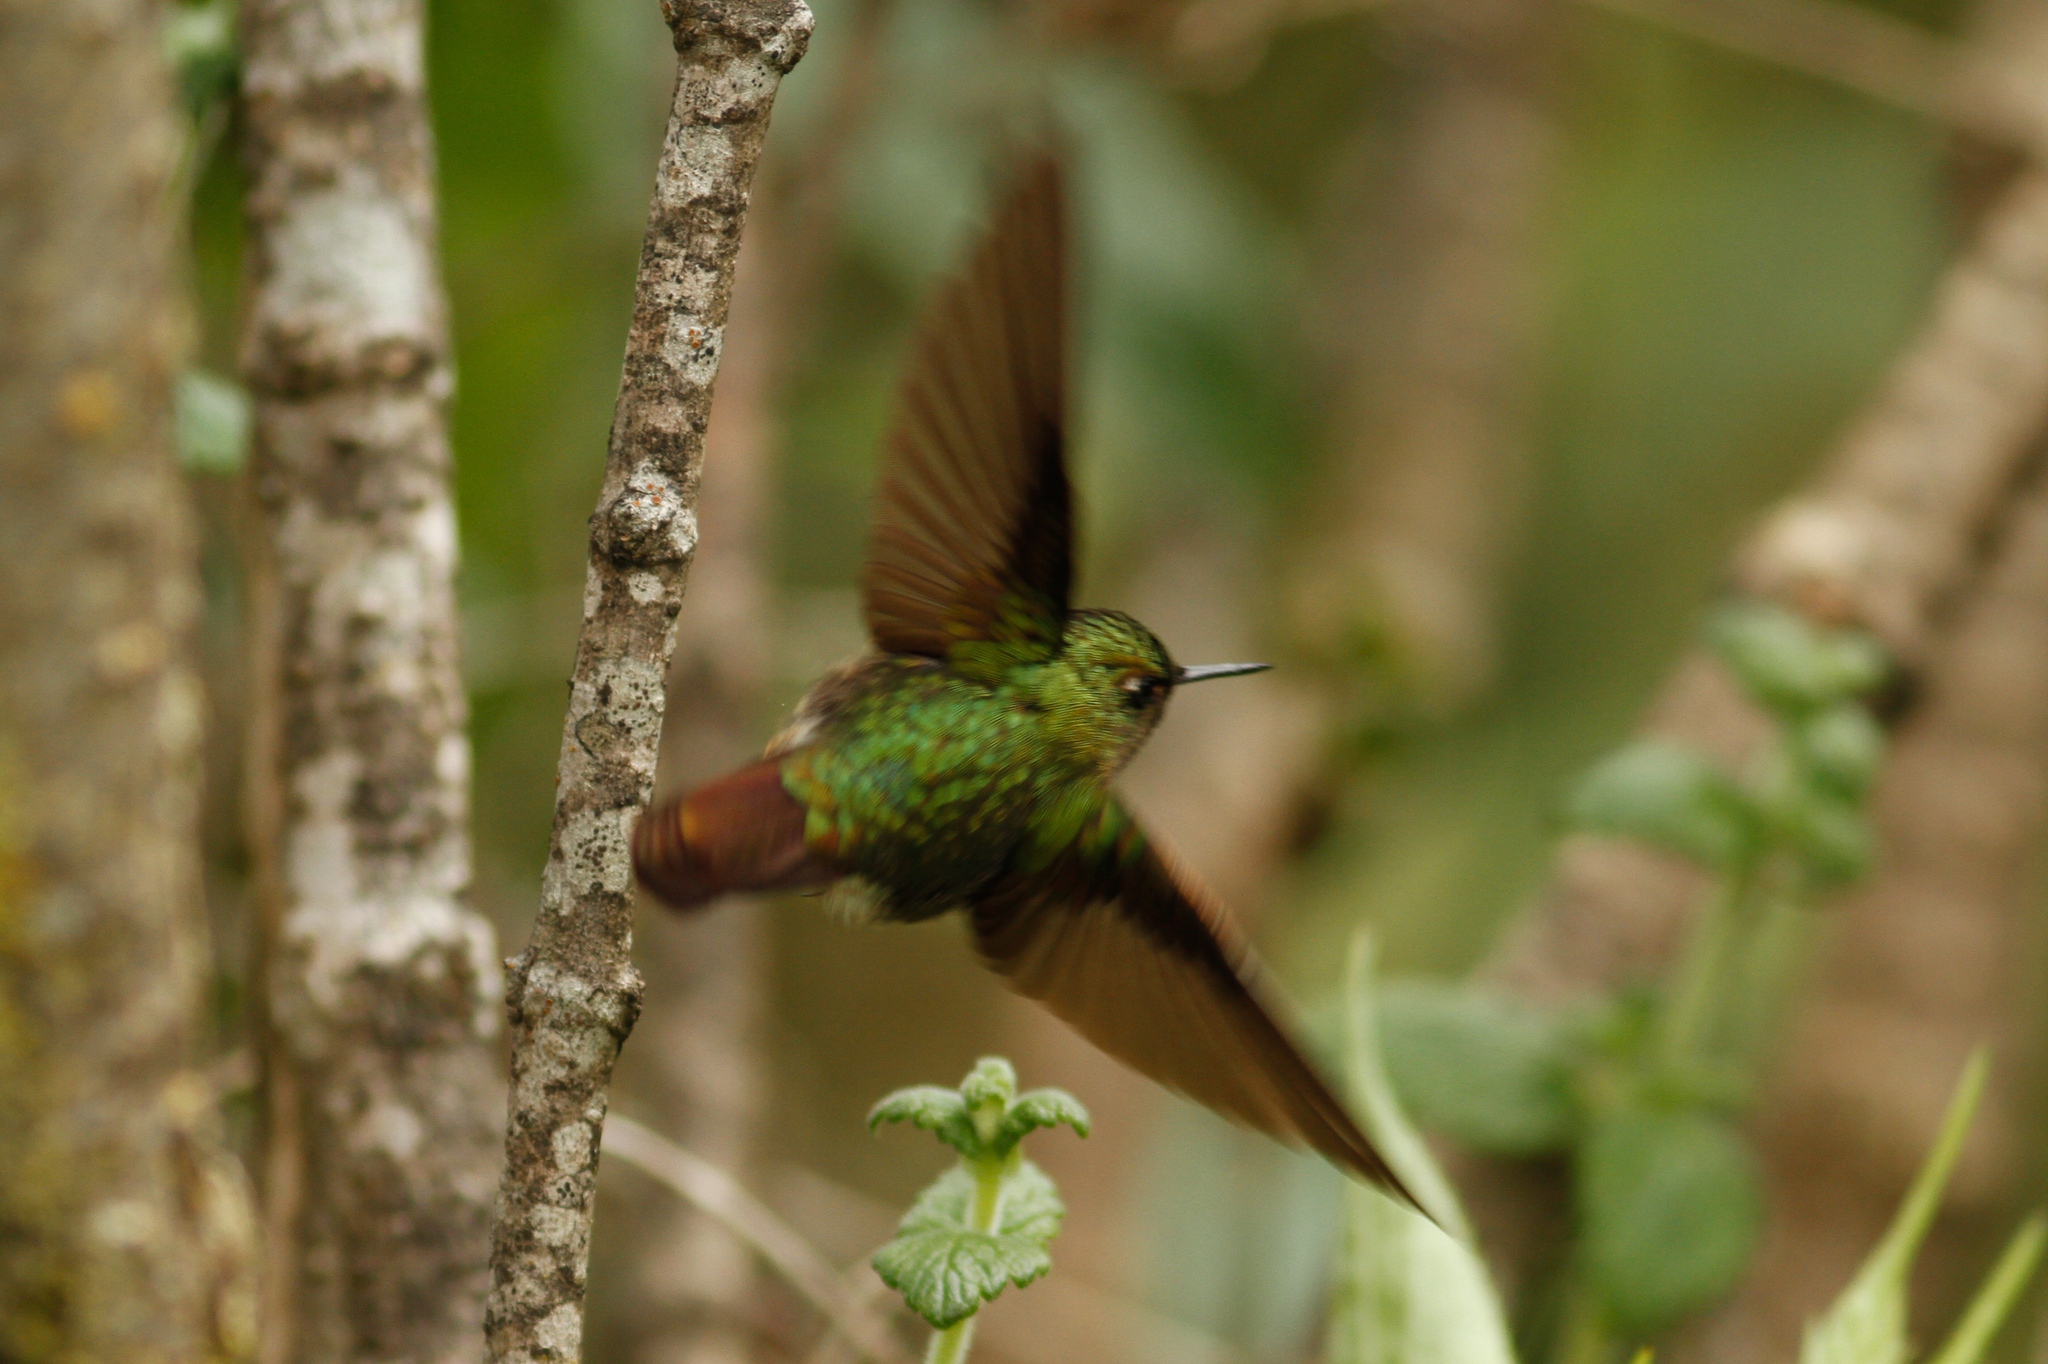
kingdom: Animalia
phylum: Chordata
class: Aves
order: Apodiformes
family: Trochilidae
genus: Metallura
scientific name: Metallura tyrianthina
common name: Tyrian metaltail
